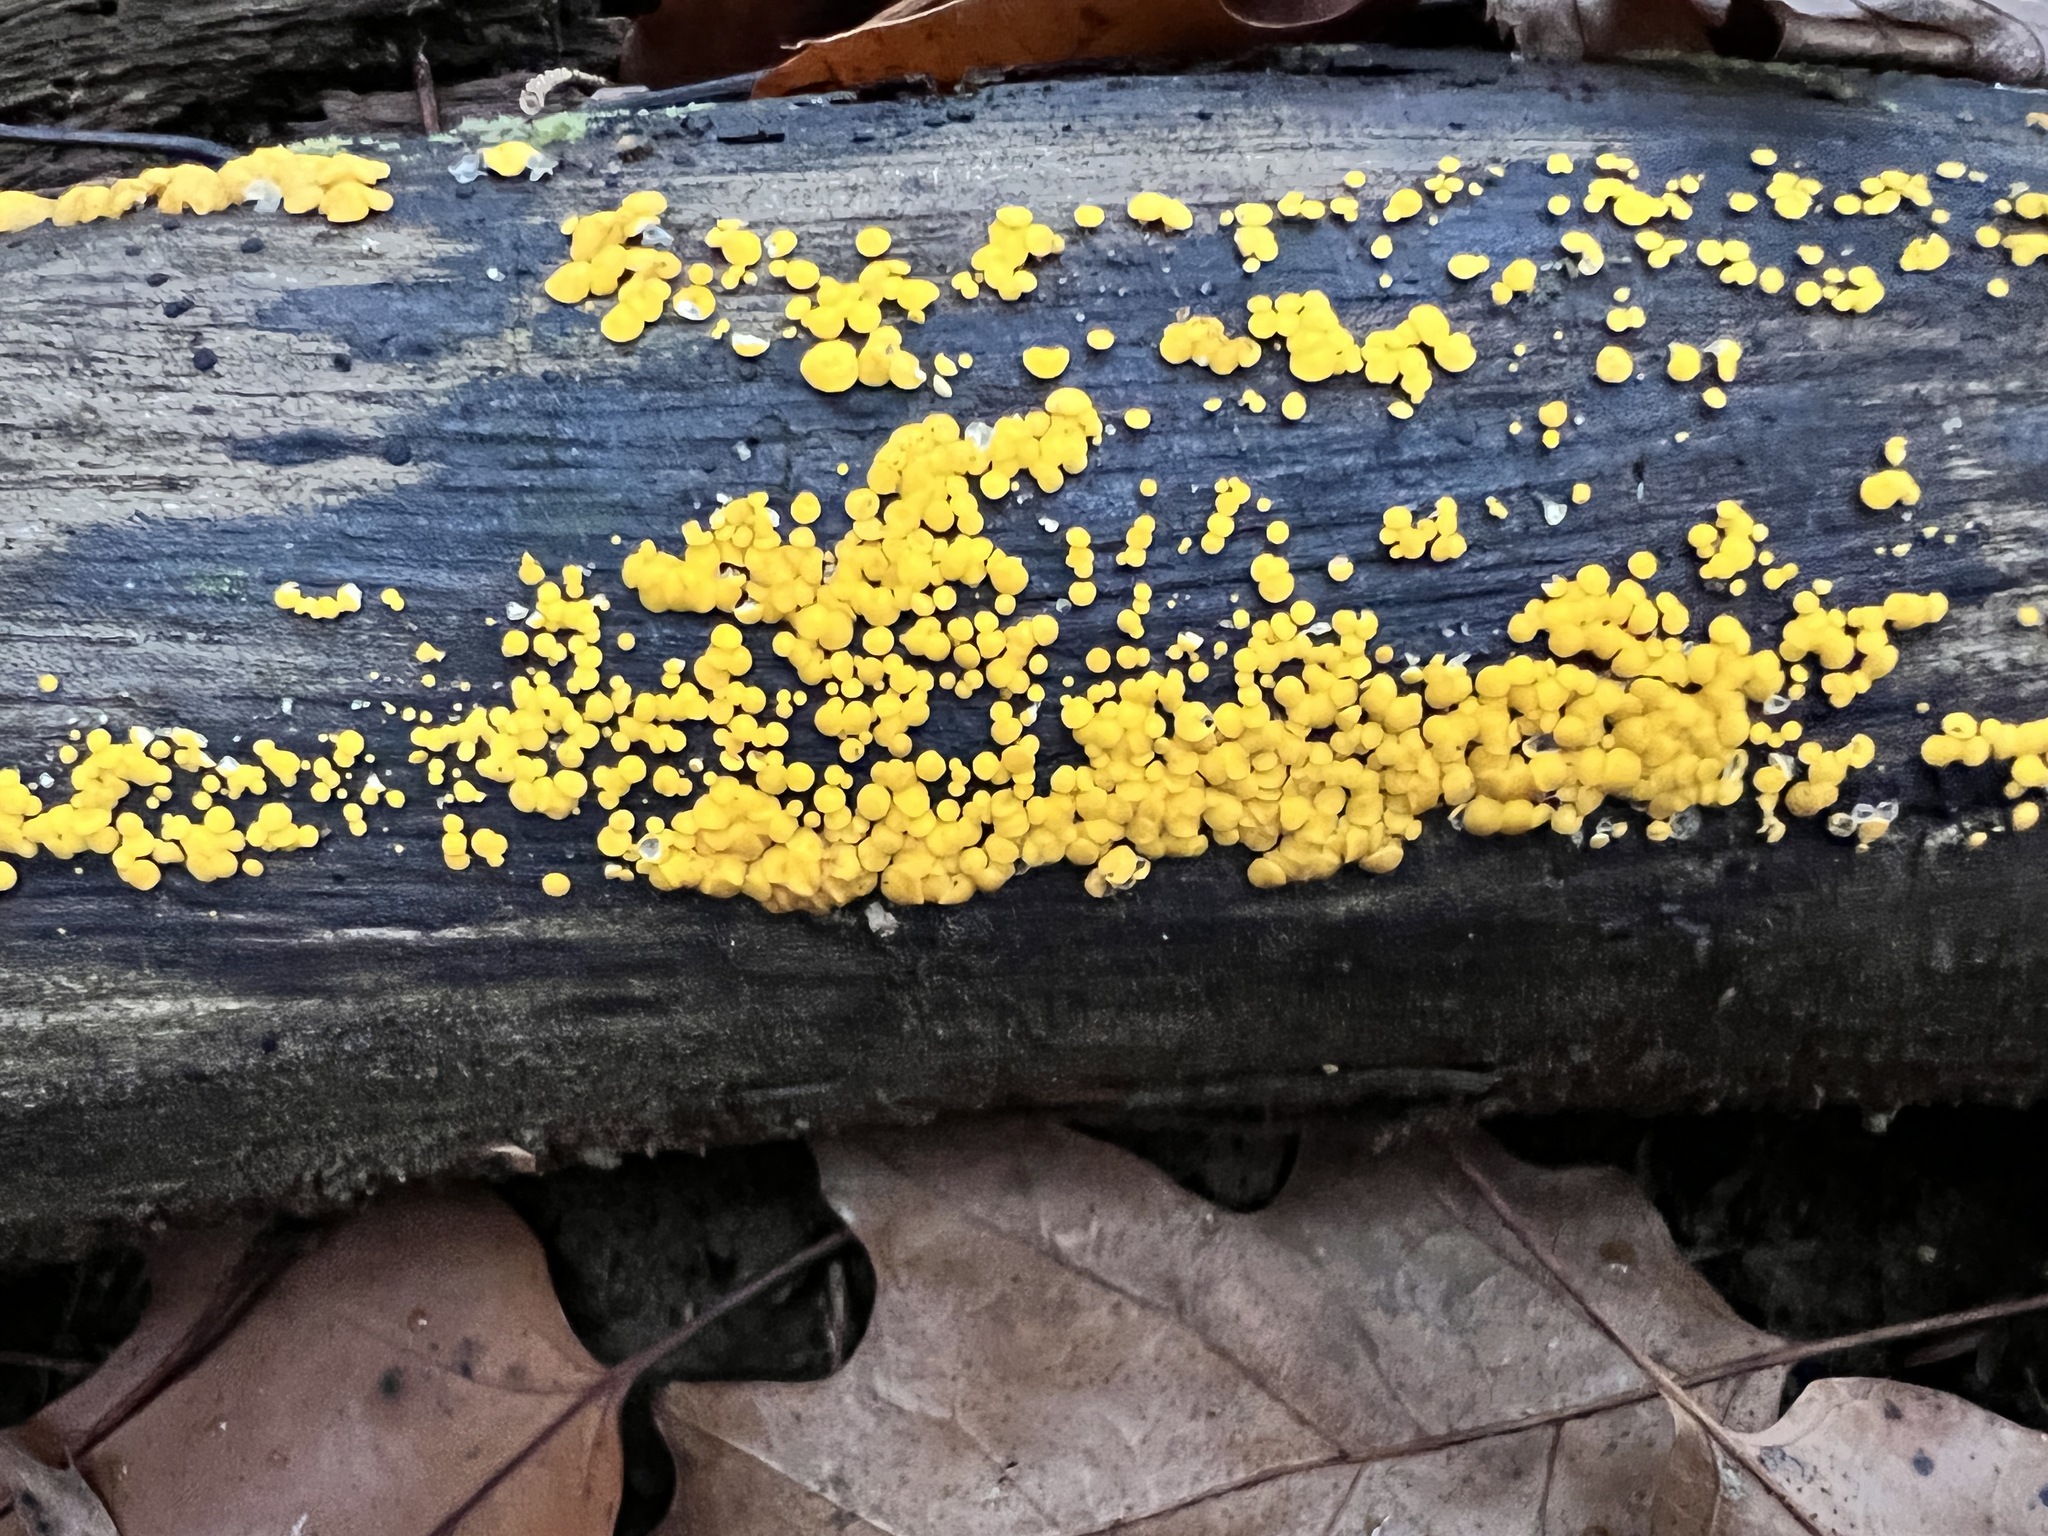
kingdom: Fungi
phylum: Ascomycota
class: Leotiomycetes
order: Helotiales
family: Pezizellaceae
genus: Calycina
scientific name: Calycina citrina
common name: Yellow fairy cups
